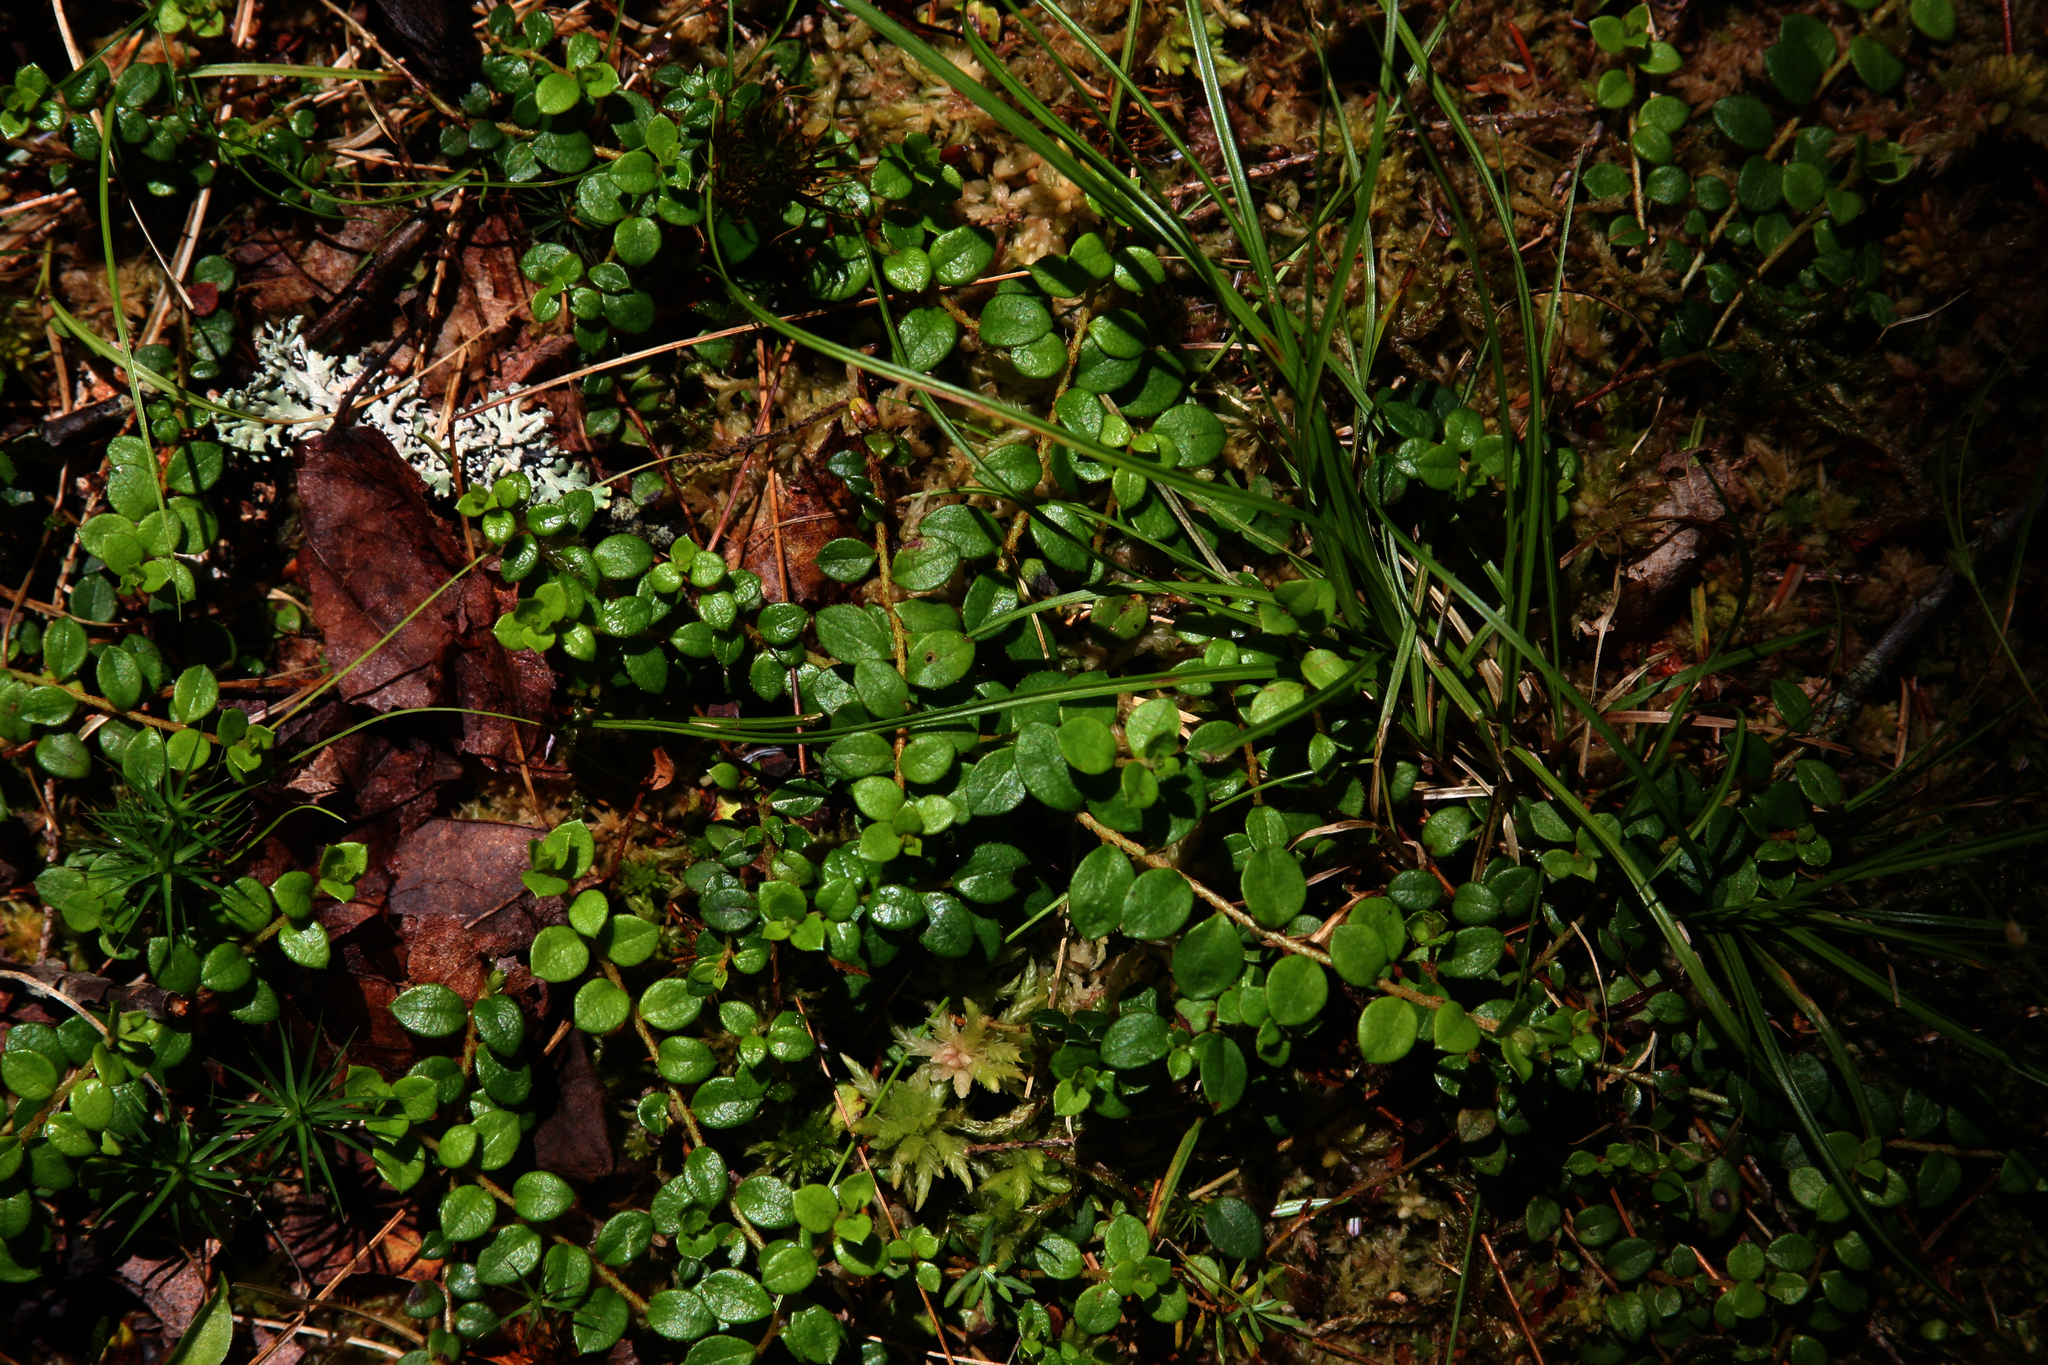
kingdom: Plantae
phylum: Tracheophyta
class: Magnoliopsida
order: Ericales
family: Ericaceae
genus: Gaultheria
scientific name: Gaultheria hispidula
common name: Cancer wintergreen
